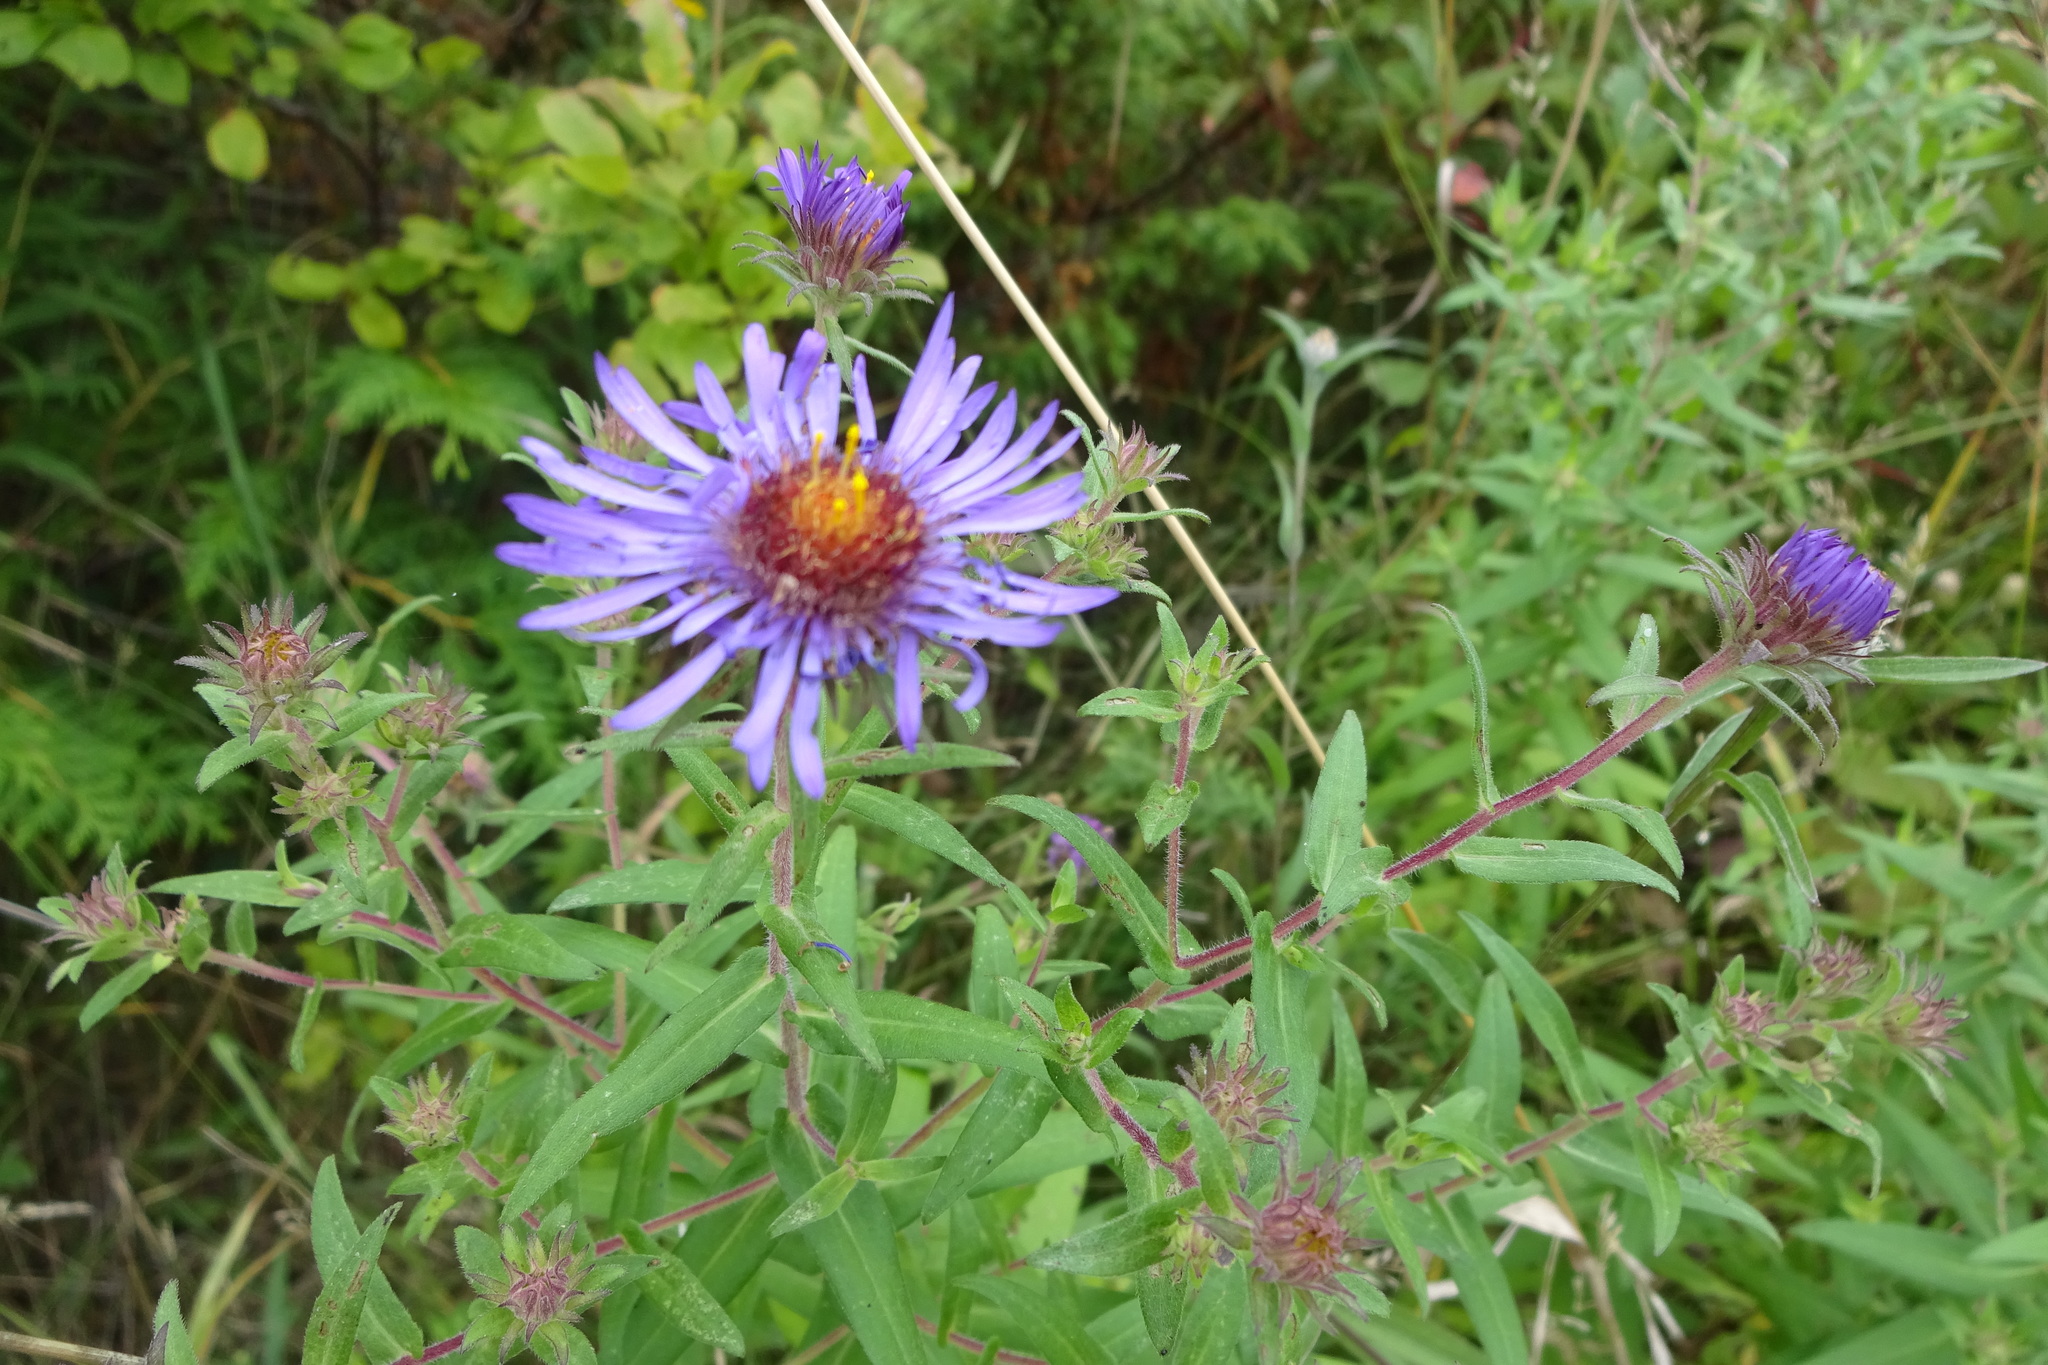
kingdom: Plantae
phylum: Tracheophyta
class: Magnoliopsida
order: Asterales
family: Asteraceae
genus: Symphyotrichum
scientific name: Symphyotrichum novae-angliae
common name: Michaelmas daisy
